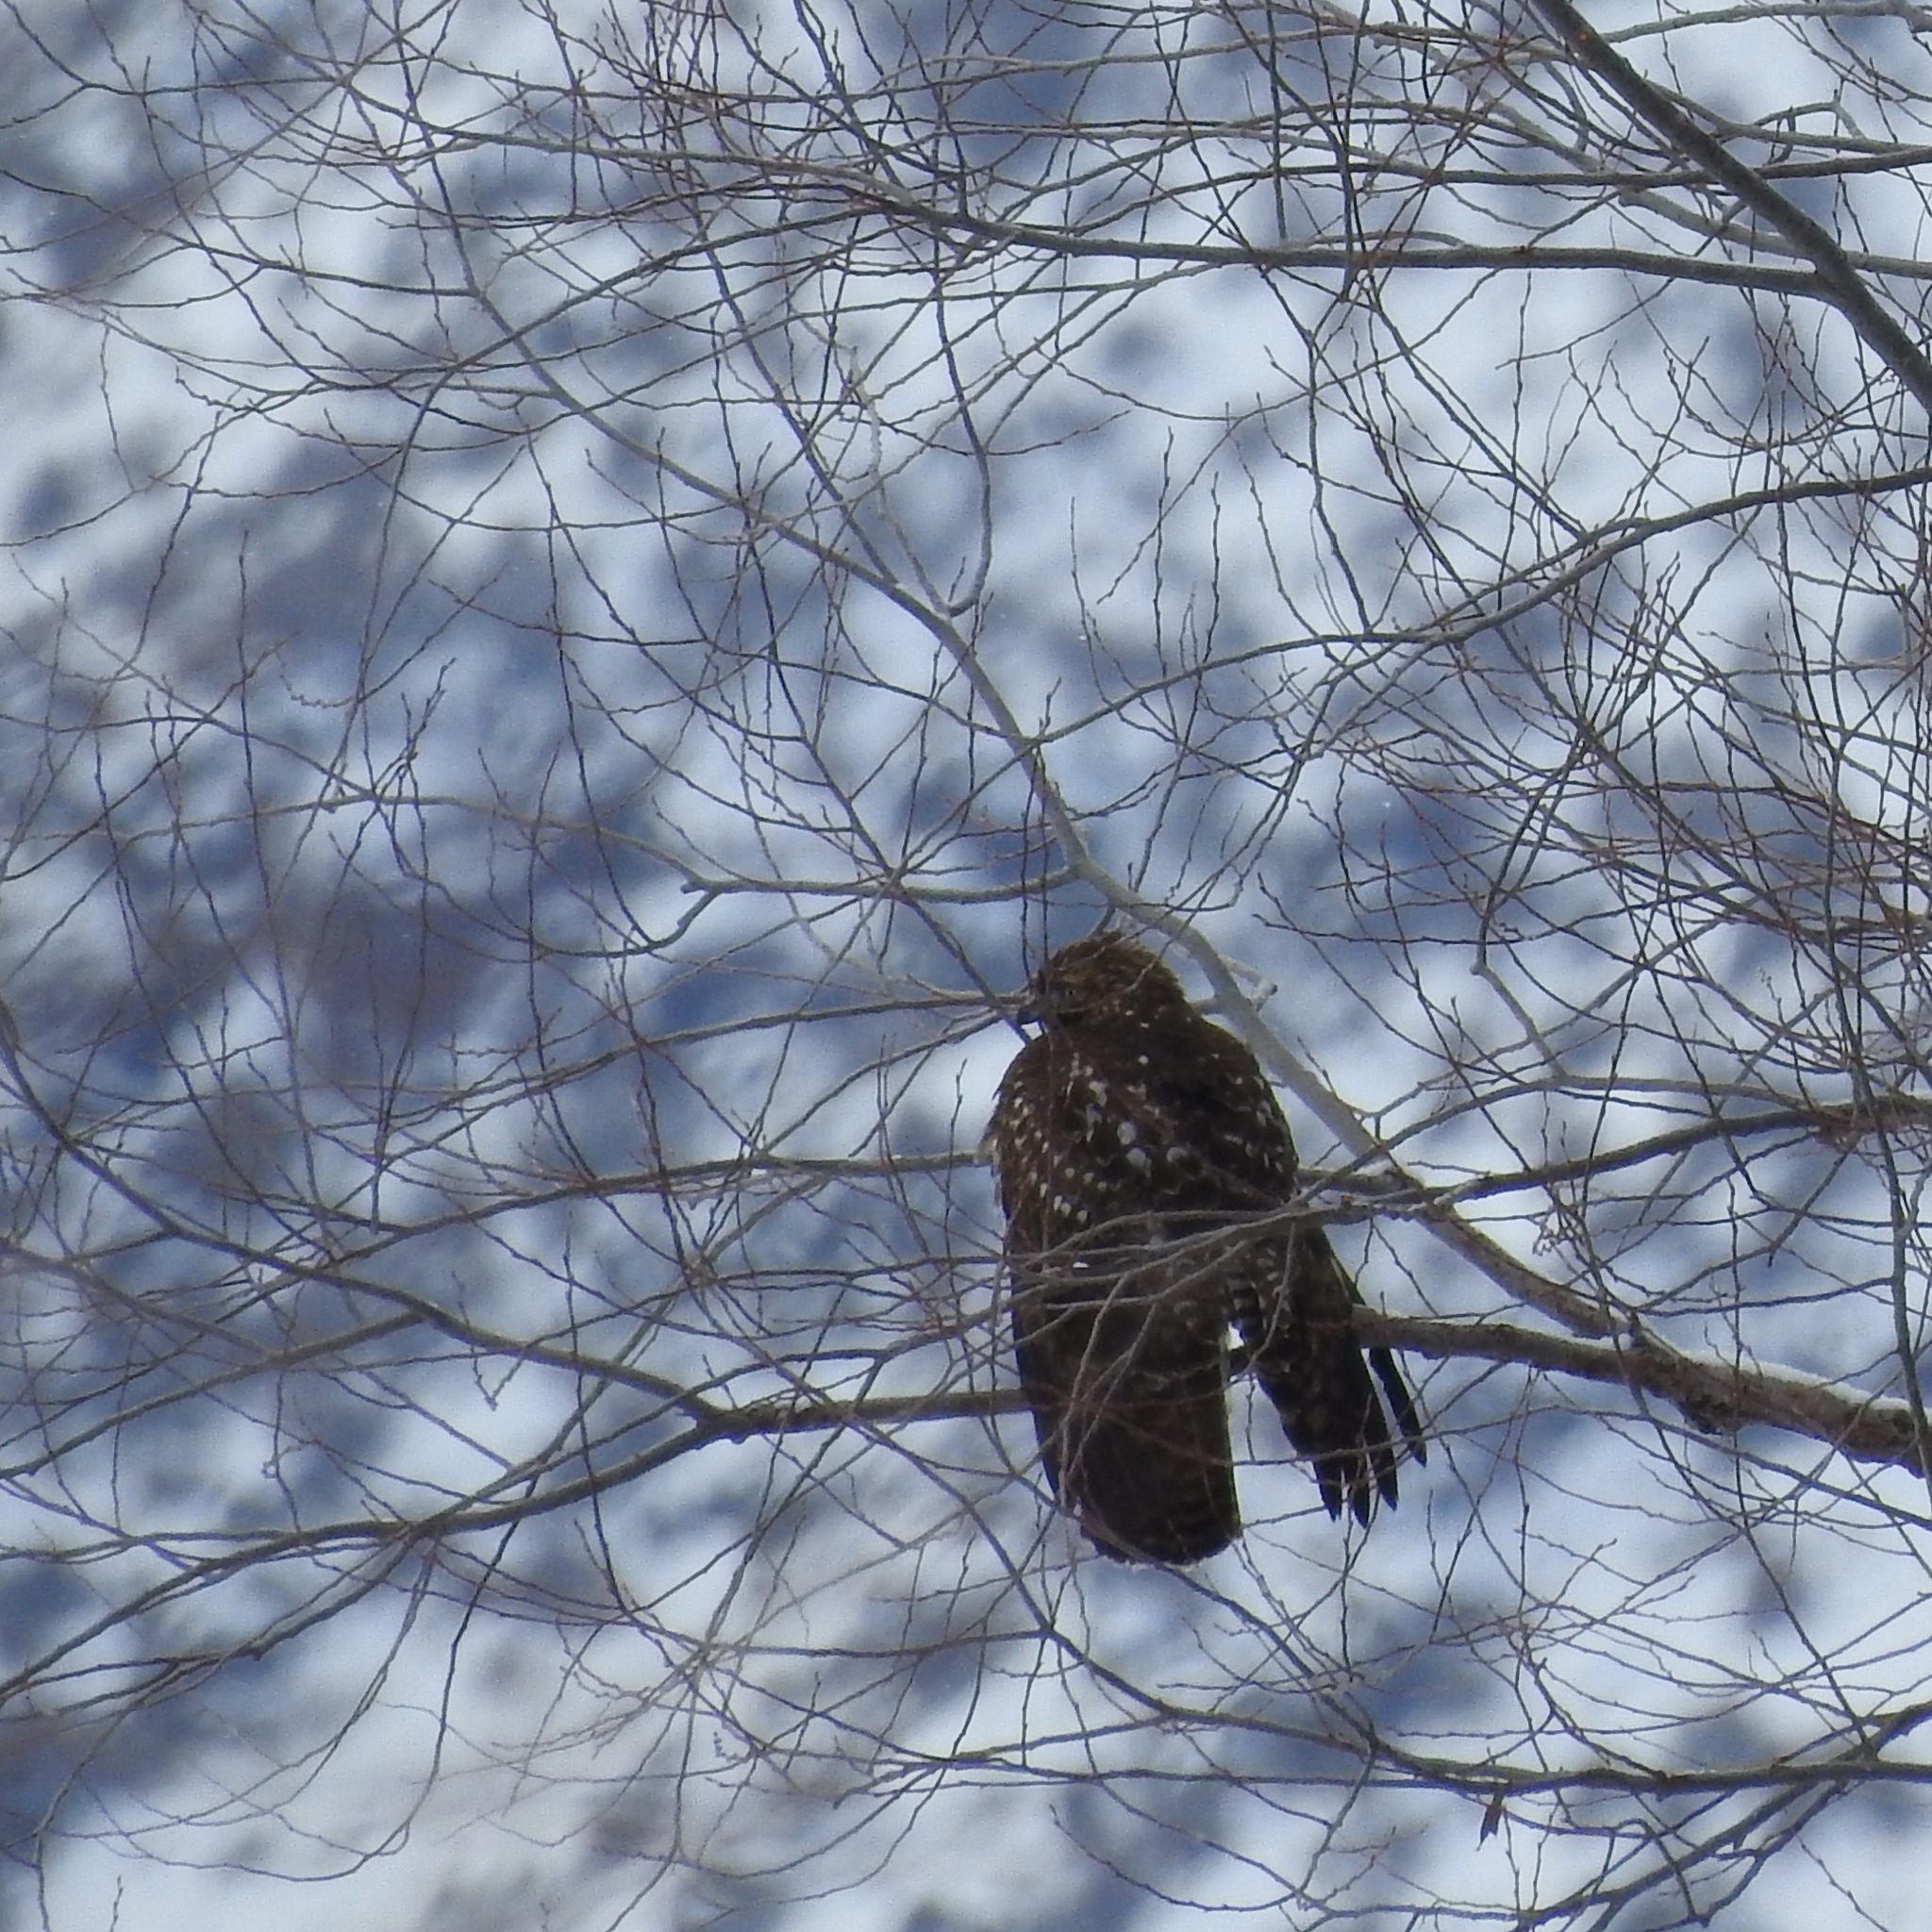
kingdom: Animalia
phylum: Chordata
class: Aves
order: Accipitriformes
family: Accipitridae
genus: Buteo
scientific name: Buteo jamaicensis
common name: Red-tailed hawk
